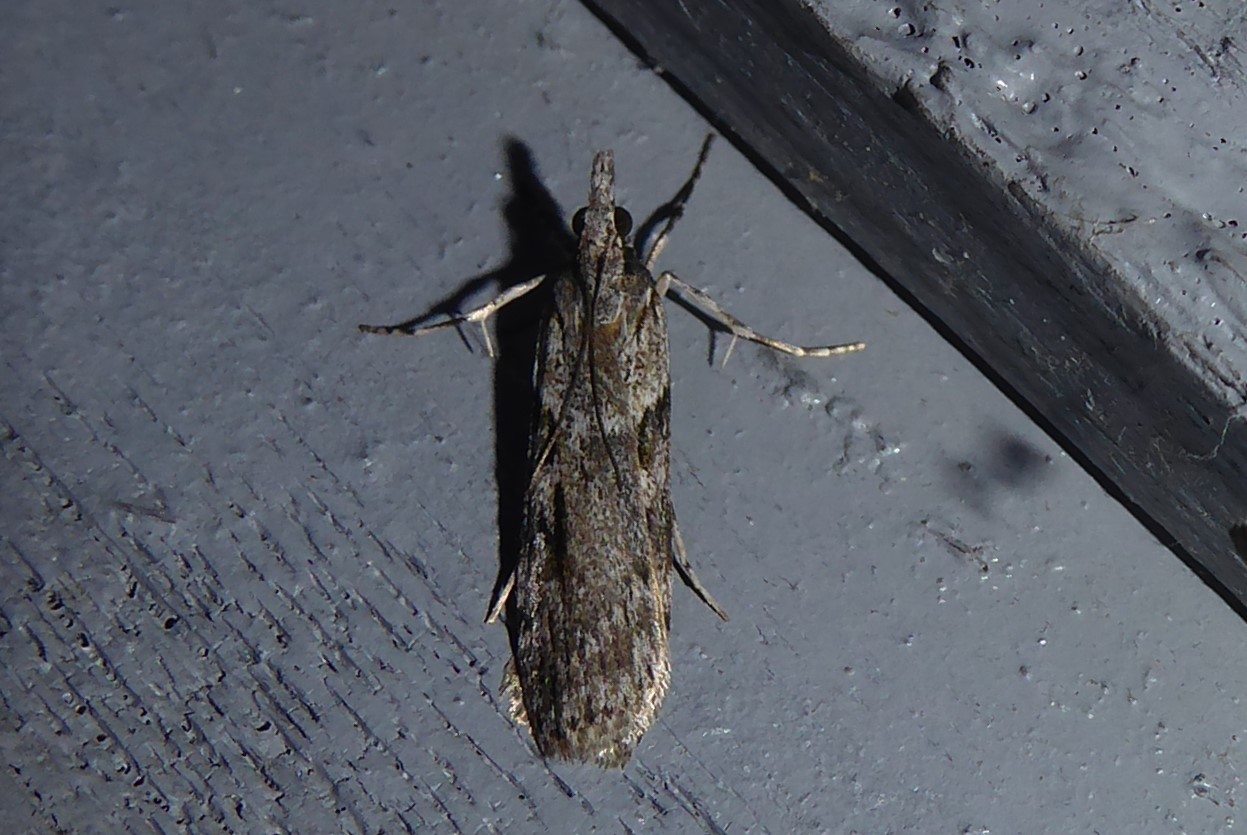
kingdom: Animalia
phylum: Arthropoda
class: Insecta
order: Lepidoptera
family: Crambidae
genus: Scoparia
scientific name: Scoparia halopis
